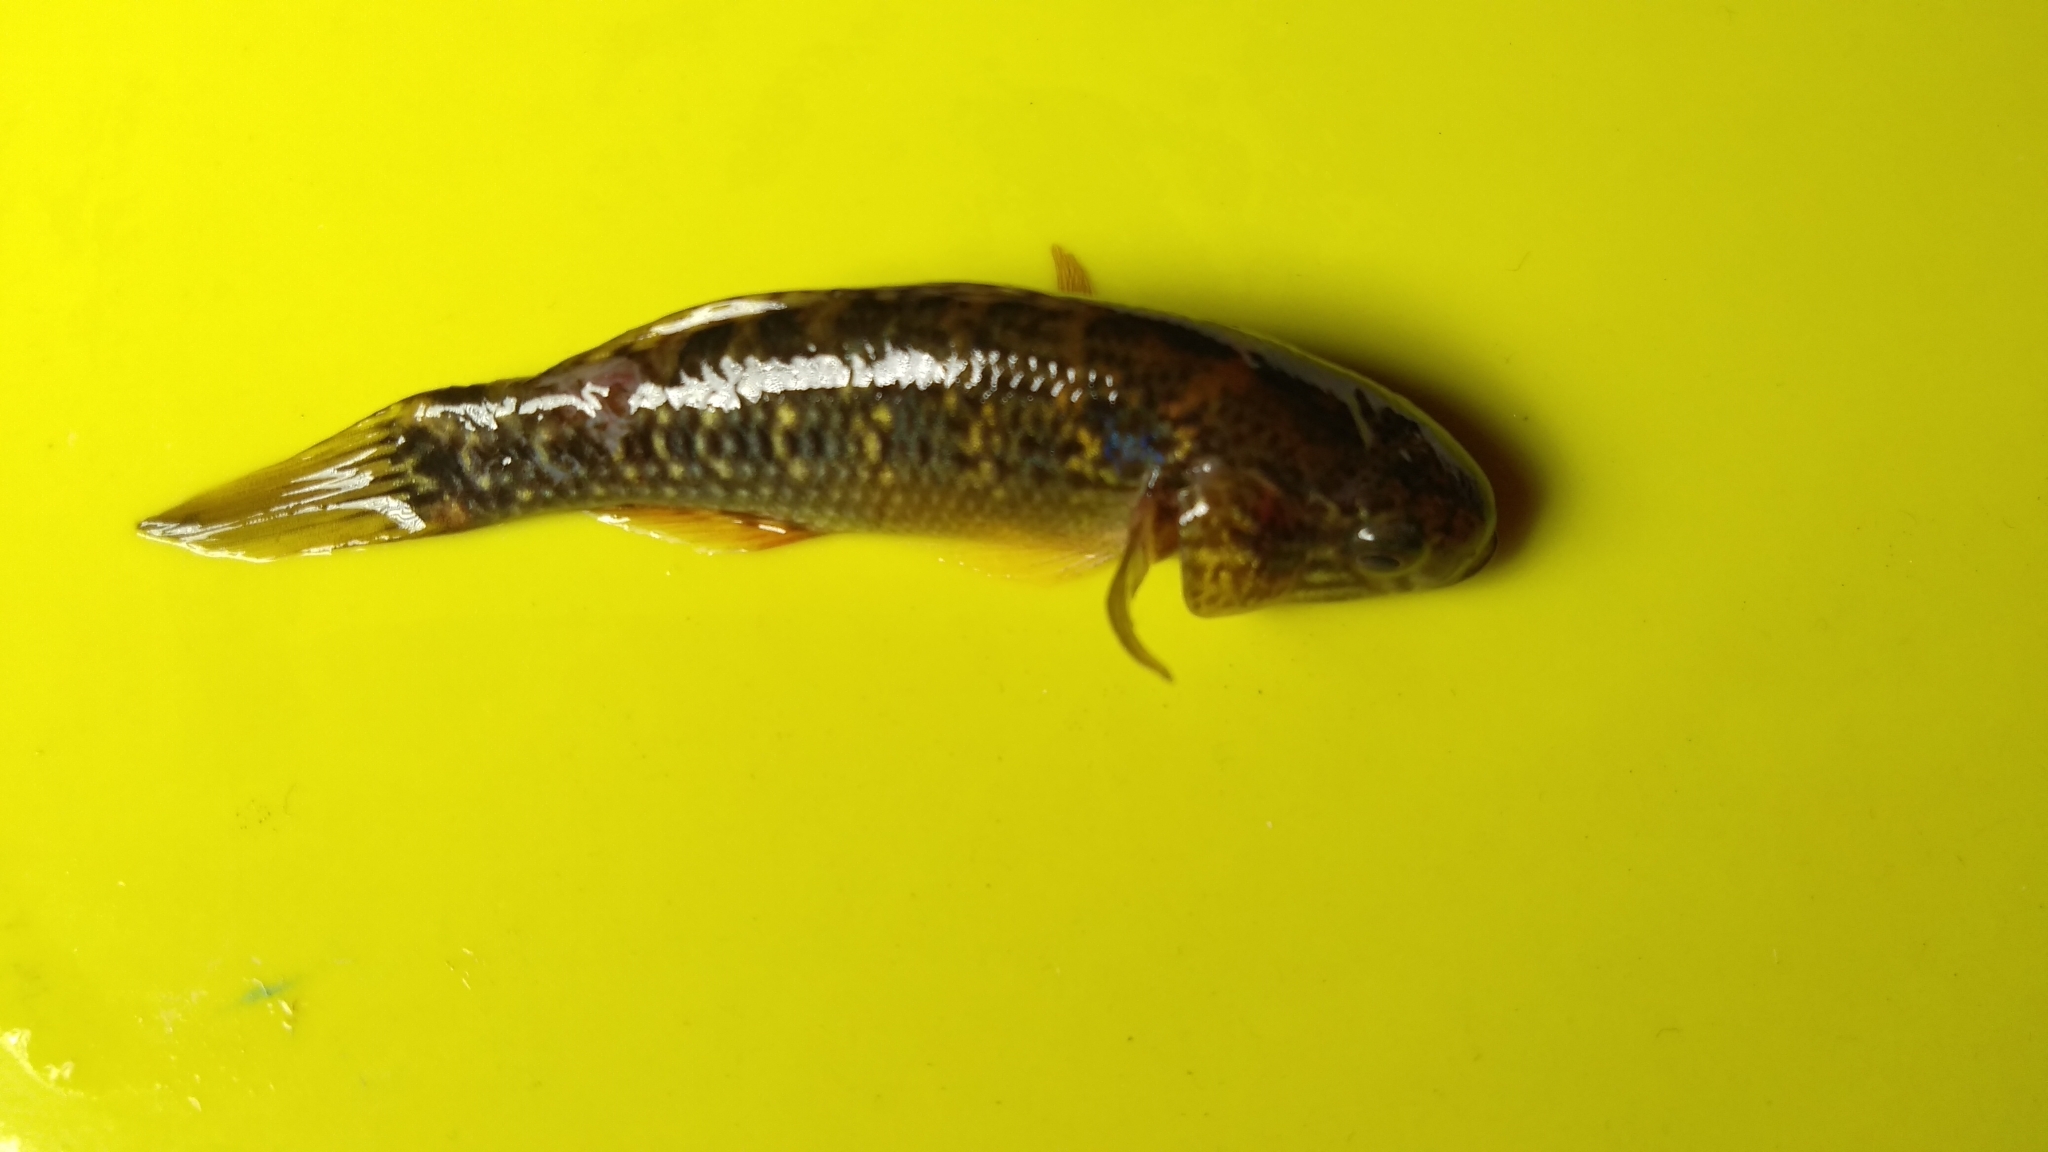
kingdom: Animalia
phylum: Chordata
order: Perciformes
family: Eleotridae
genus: Dormitator
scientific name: Dormitator maculatus
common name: Fat sleeper
